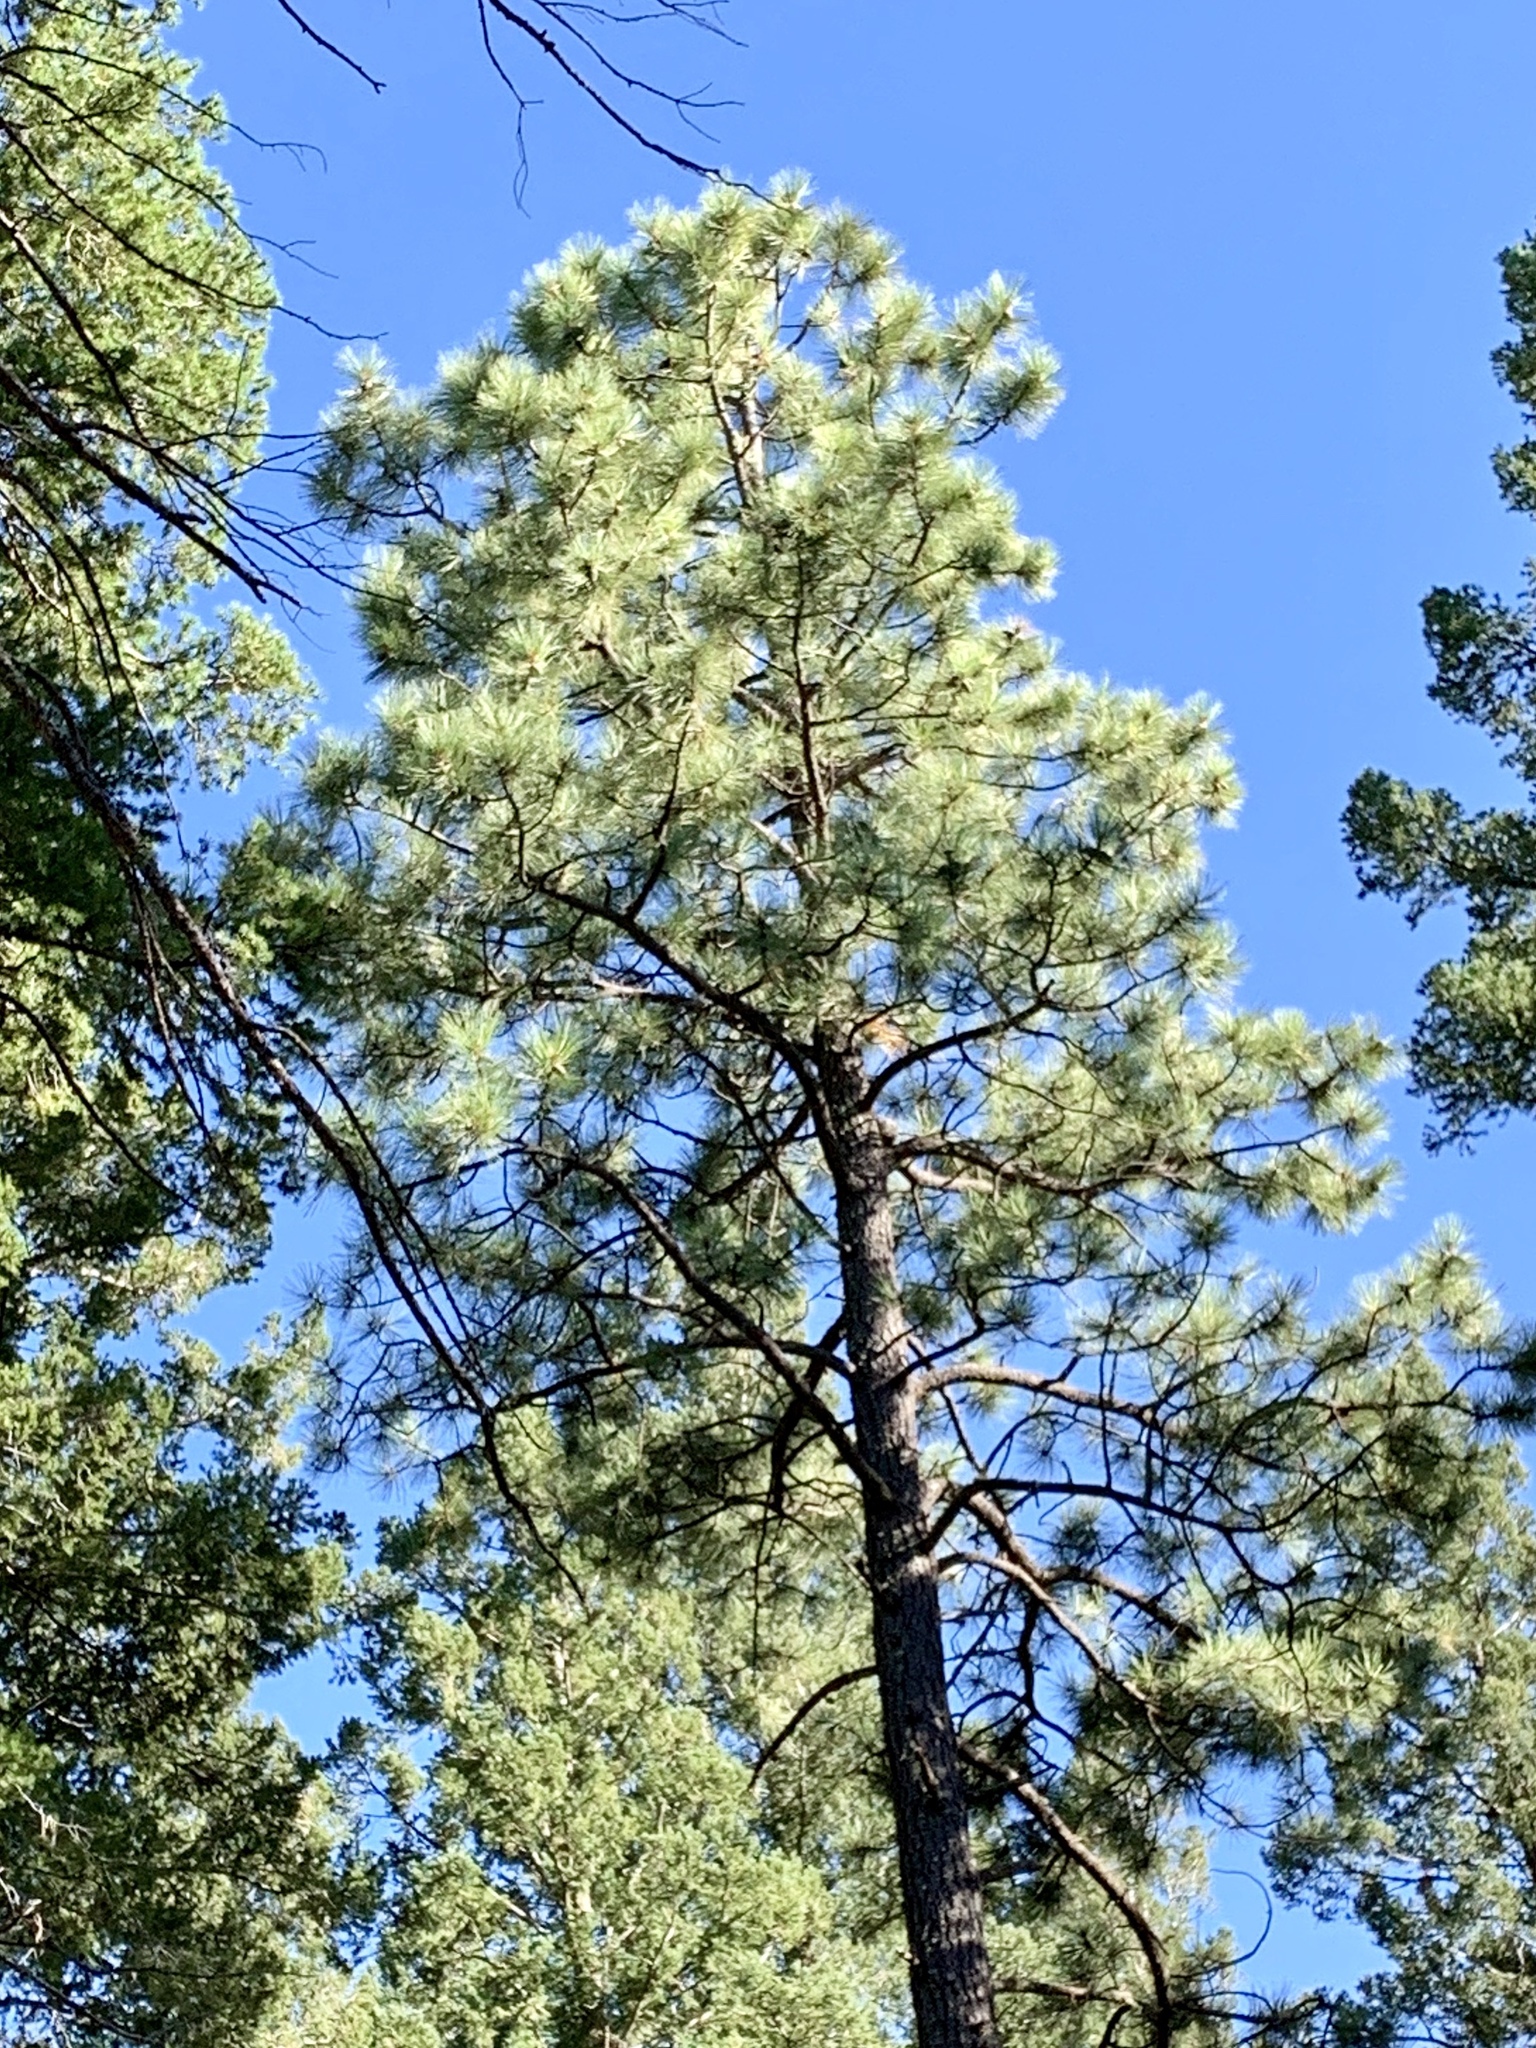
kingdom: Plantae
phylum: Tracheophyta
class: Pinopsida
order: Pinales
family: Pinaceae
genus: Pinus
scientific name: Pinus ponderosa
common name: Western yellow-pine
